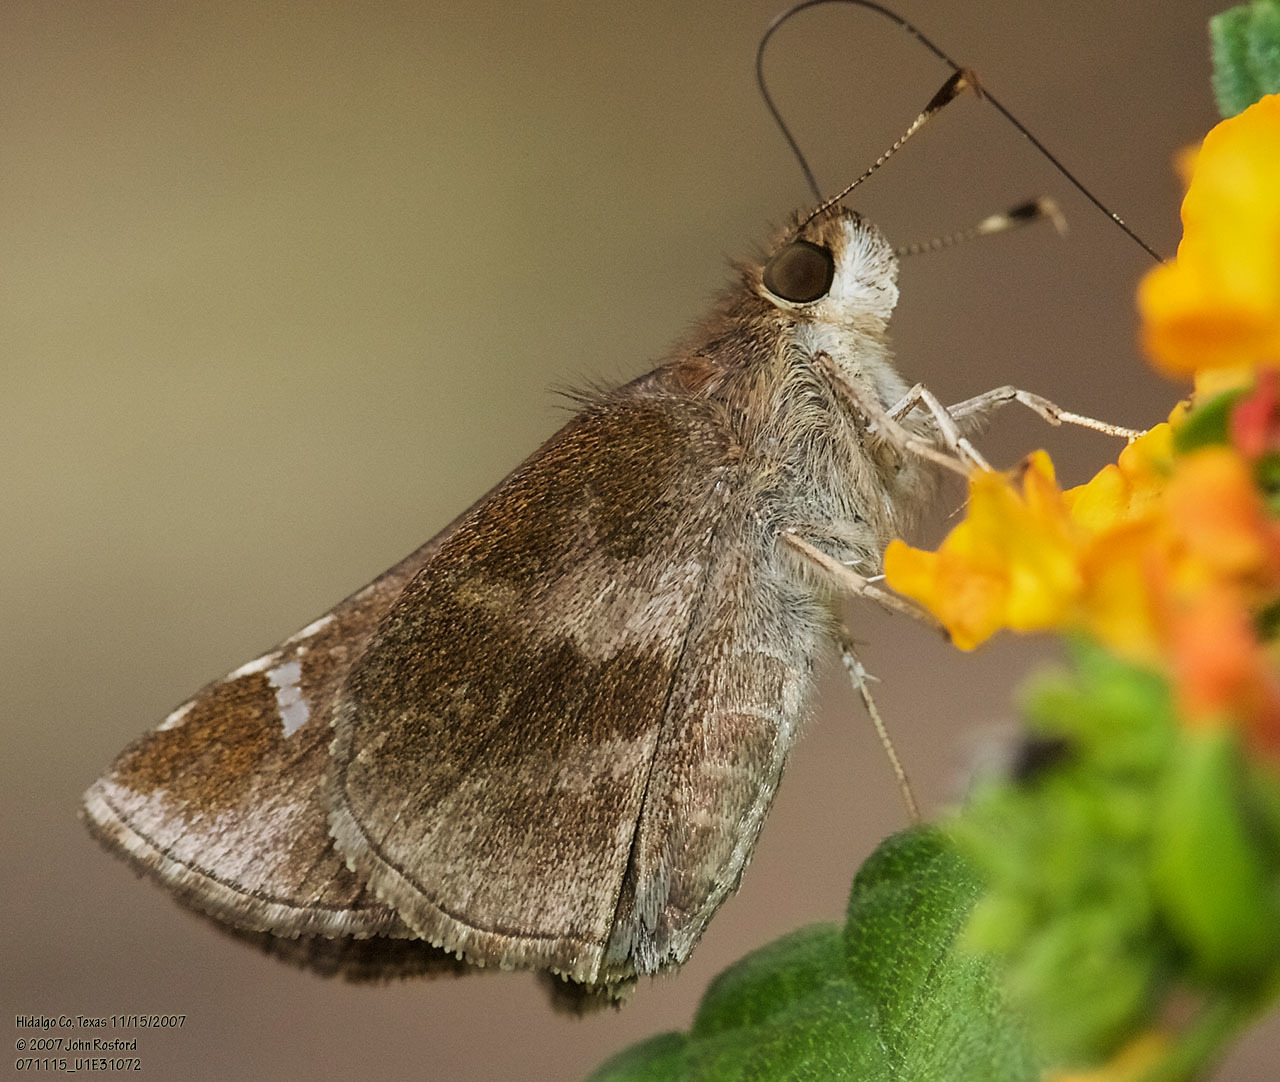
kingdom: Animalia
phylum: Arthropoda
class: Insecta
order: Lepidoptera
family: Hesperiidae
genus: Lerema
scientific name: Lerema accius
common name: Clouded skipper
